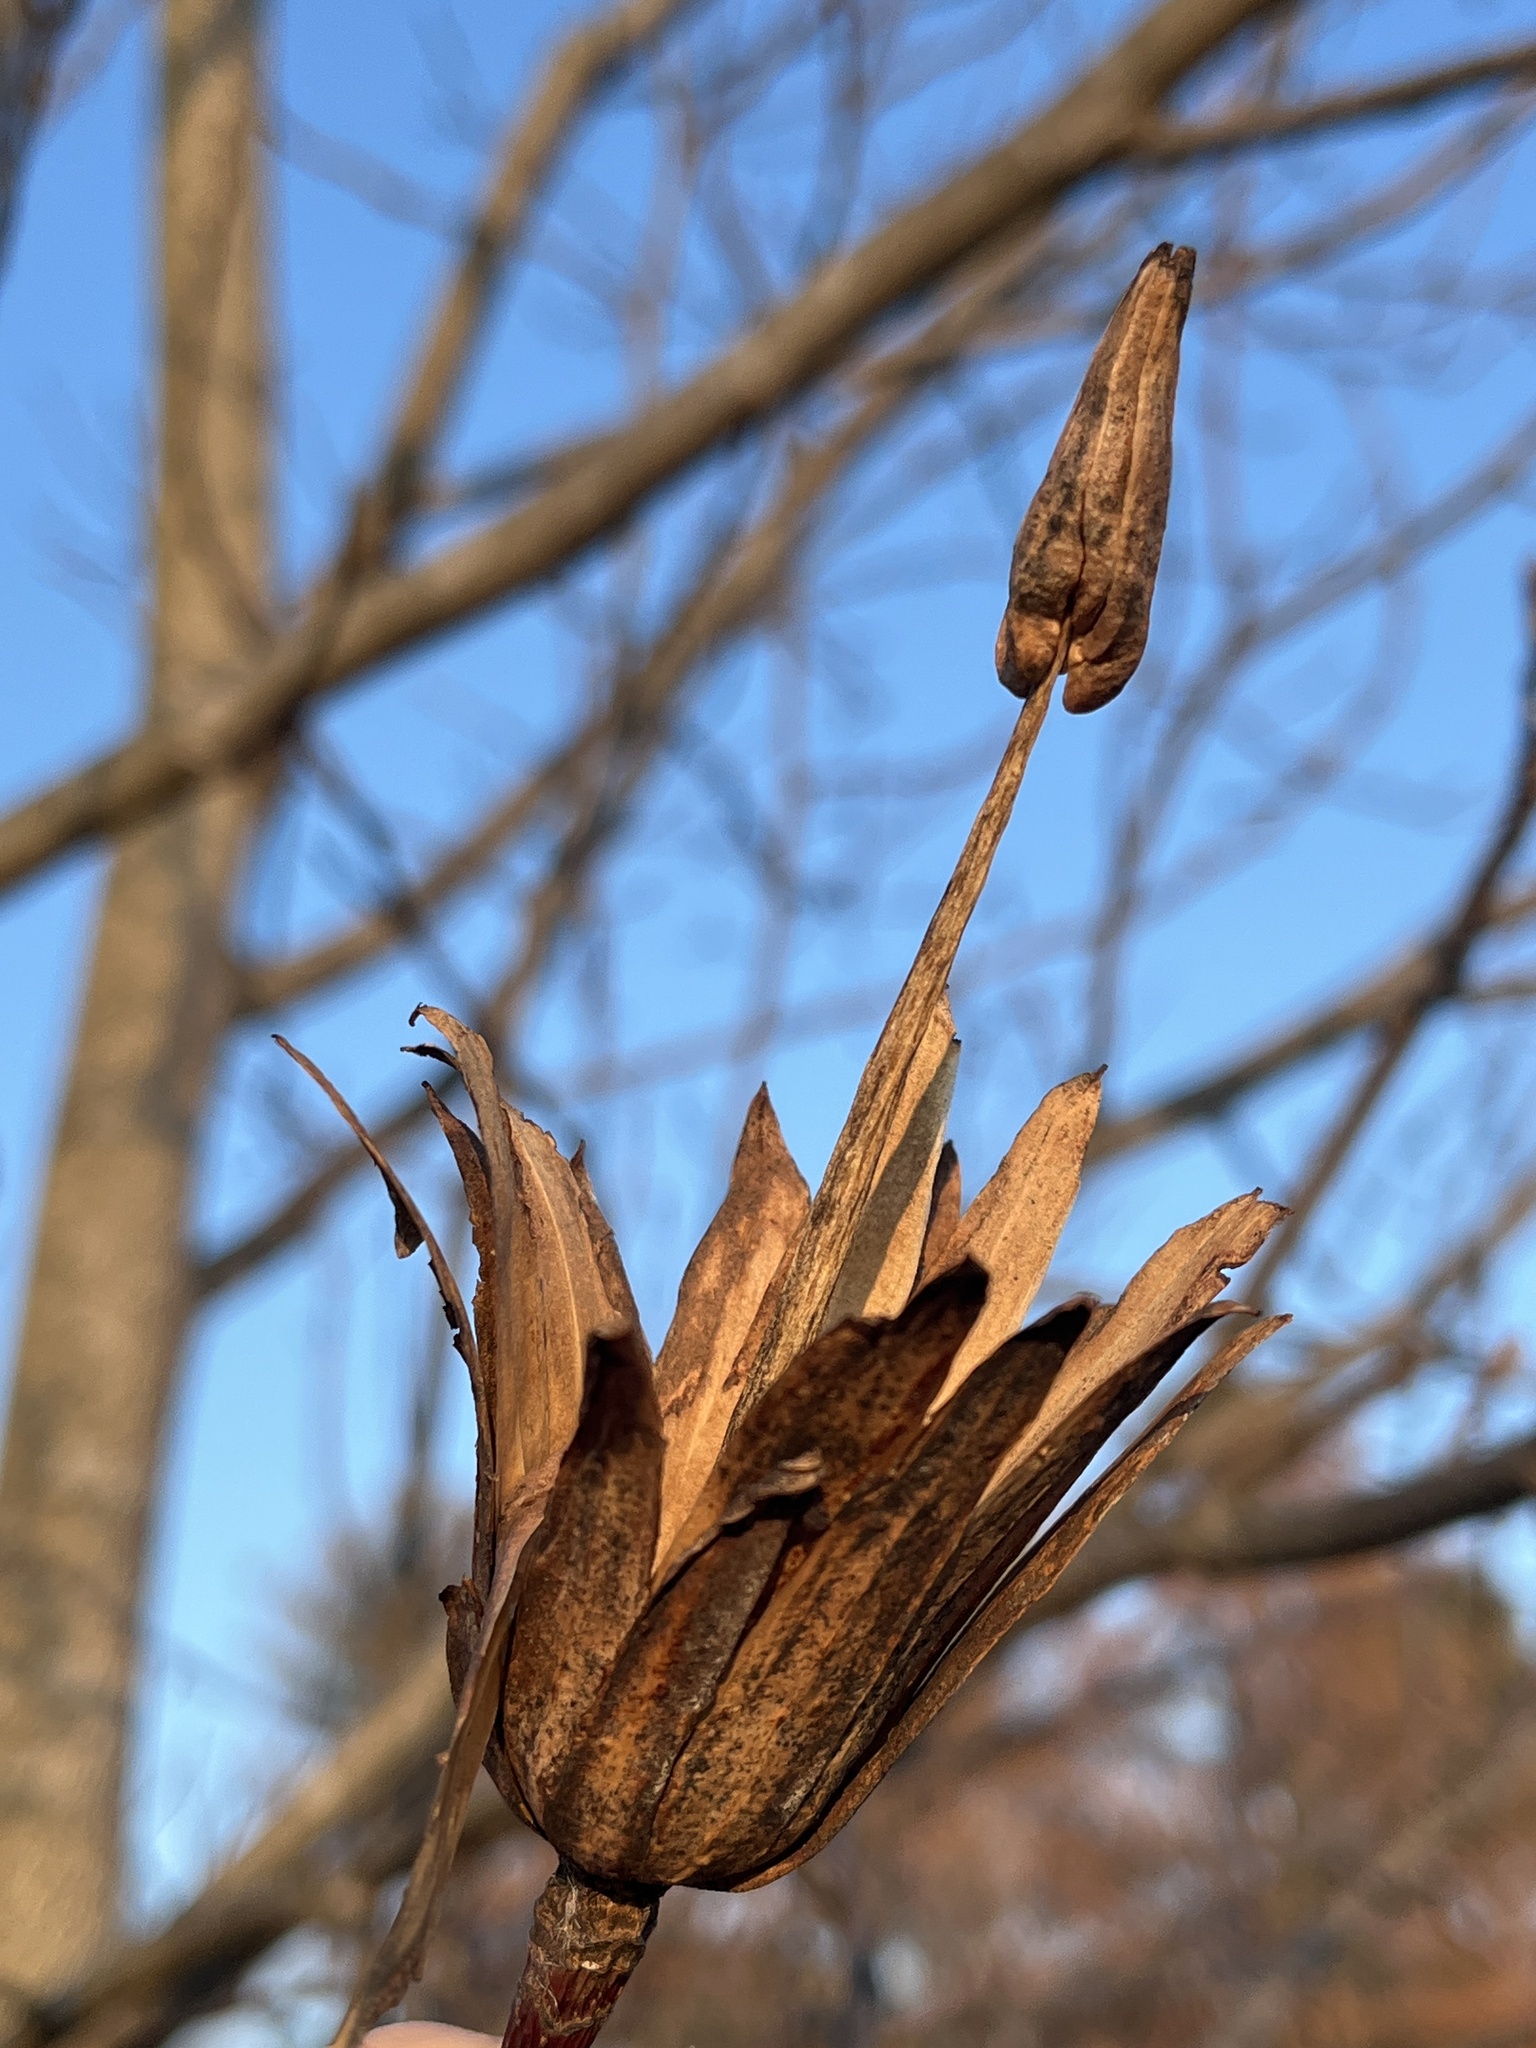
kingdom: Plantae
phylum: Tracheophyta
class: Magnoliopsida
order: Magnoliales
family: Magnoliaceae
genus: Liriodendron
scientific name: Liriodendron tulipifera
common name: Tulip tree
